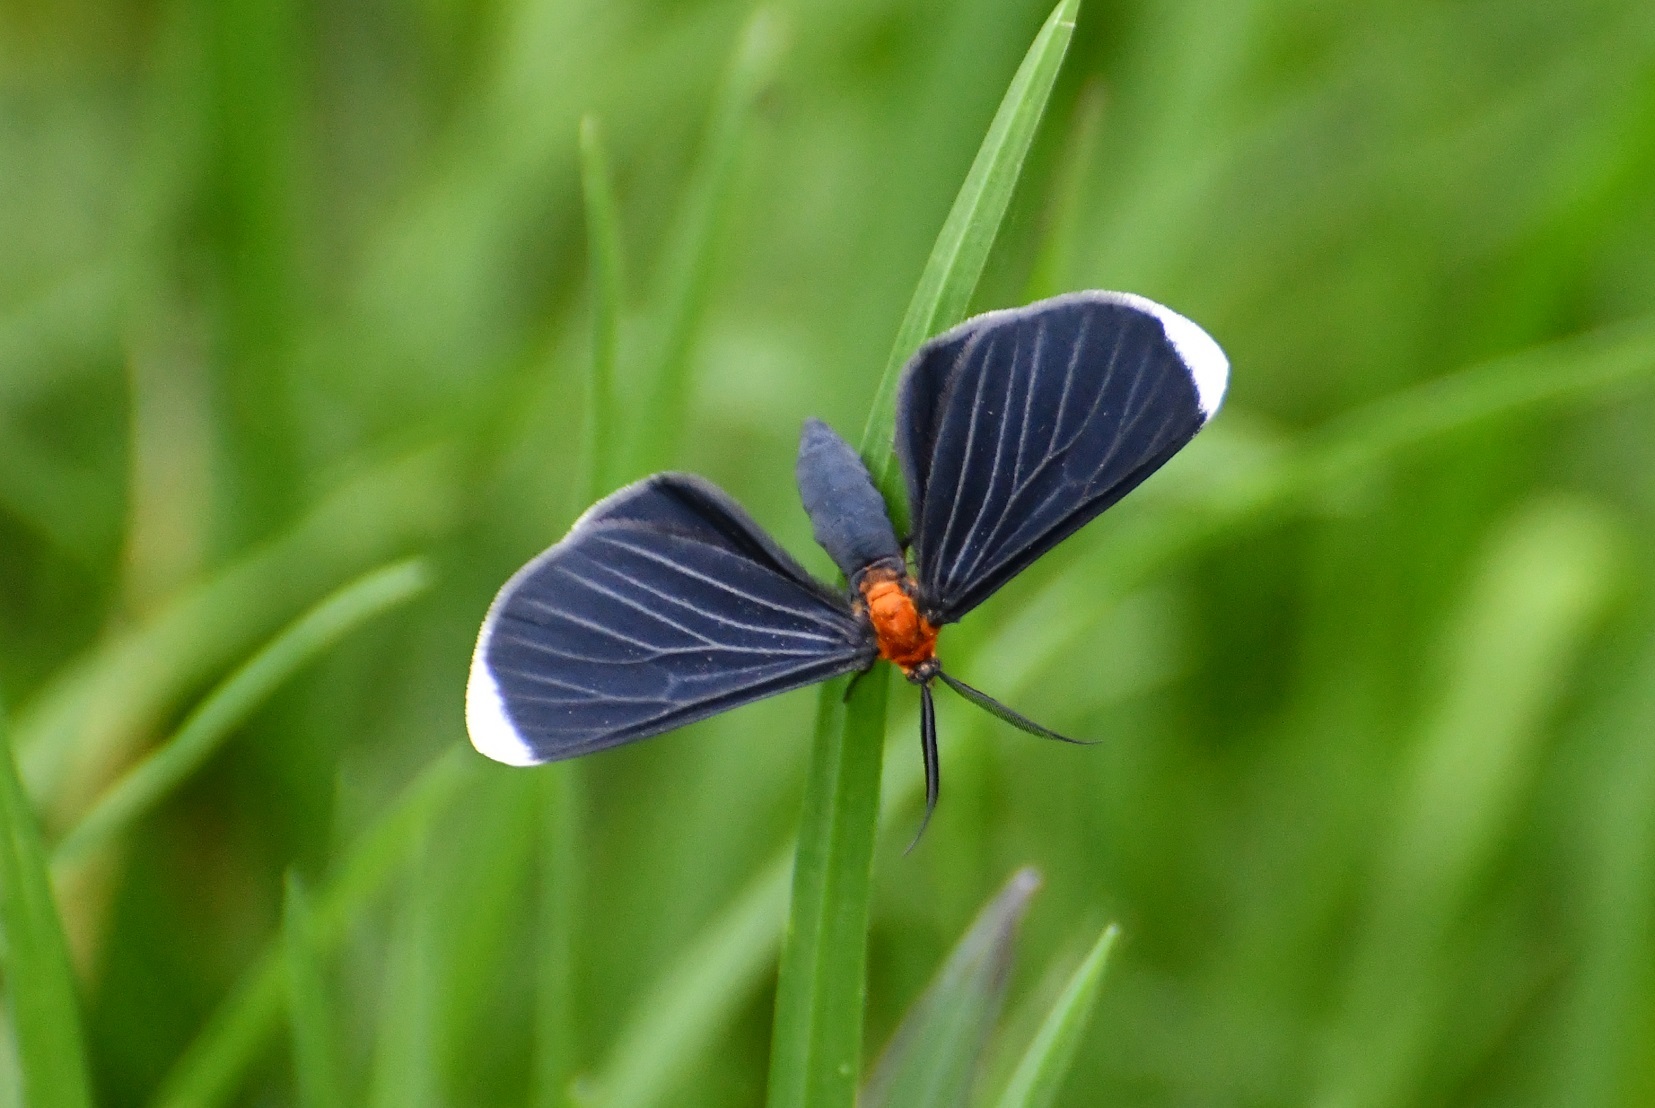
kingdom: Animalia
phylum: Arthropoda
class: Insecta
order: Lepidoptera
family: Geometridae
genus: Melanchroia
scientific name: Melanchroia chephise
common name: White-tipped black
